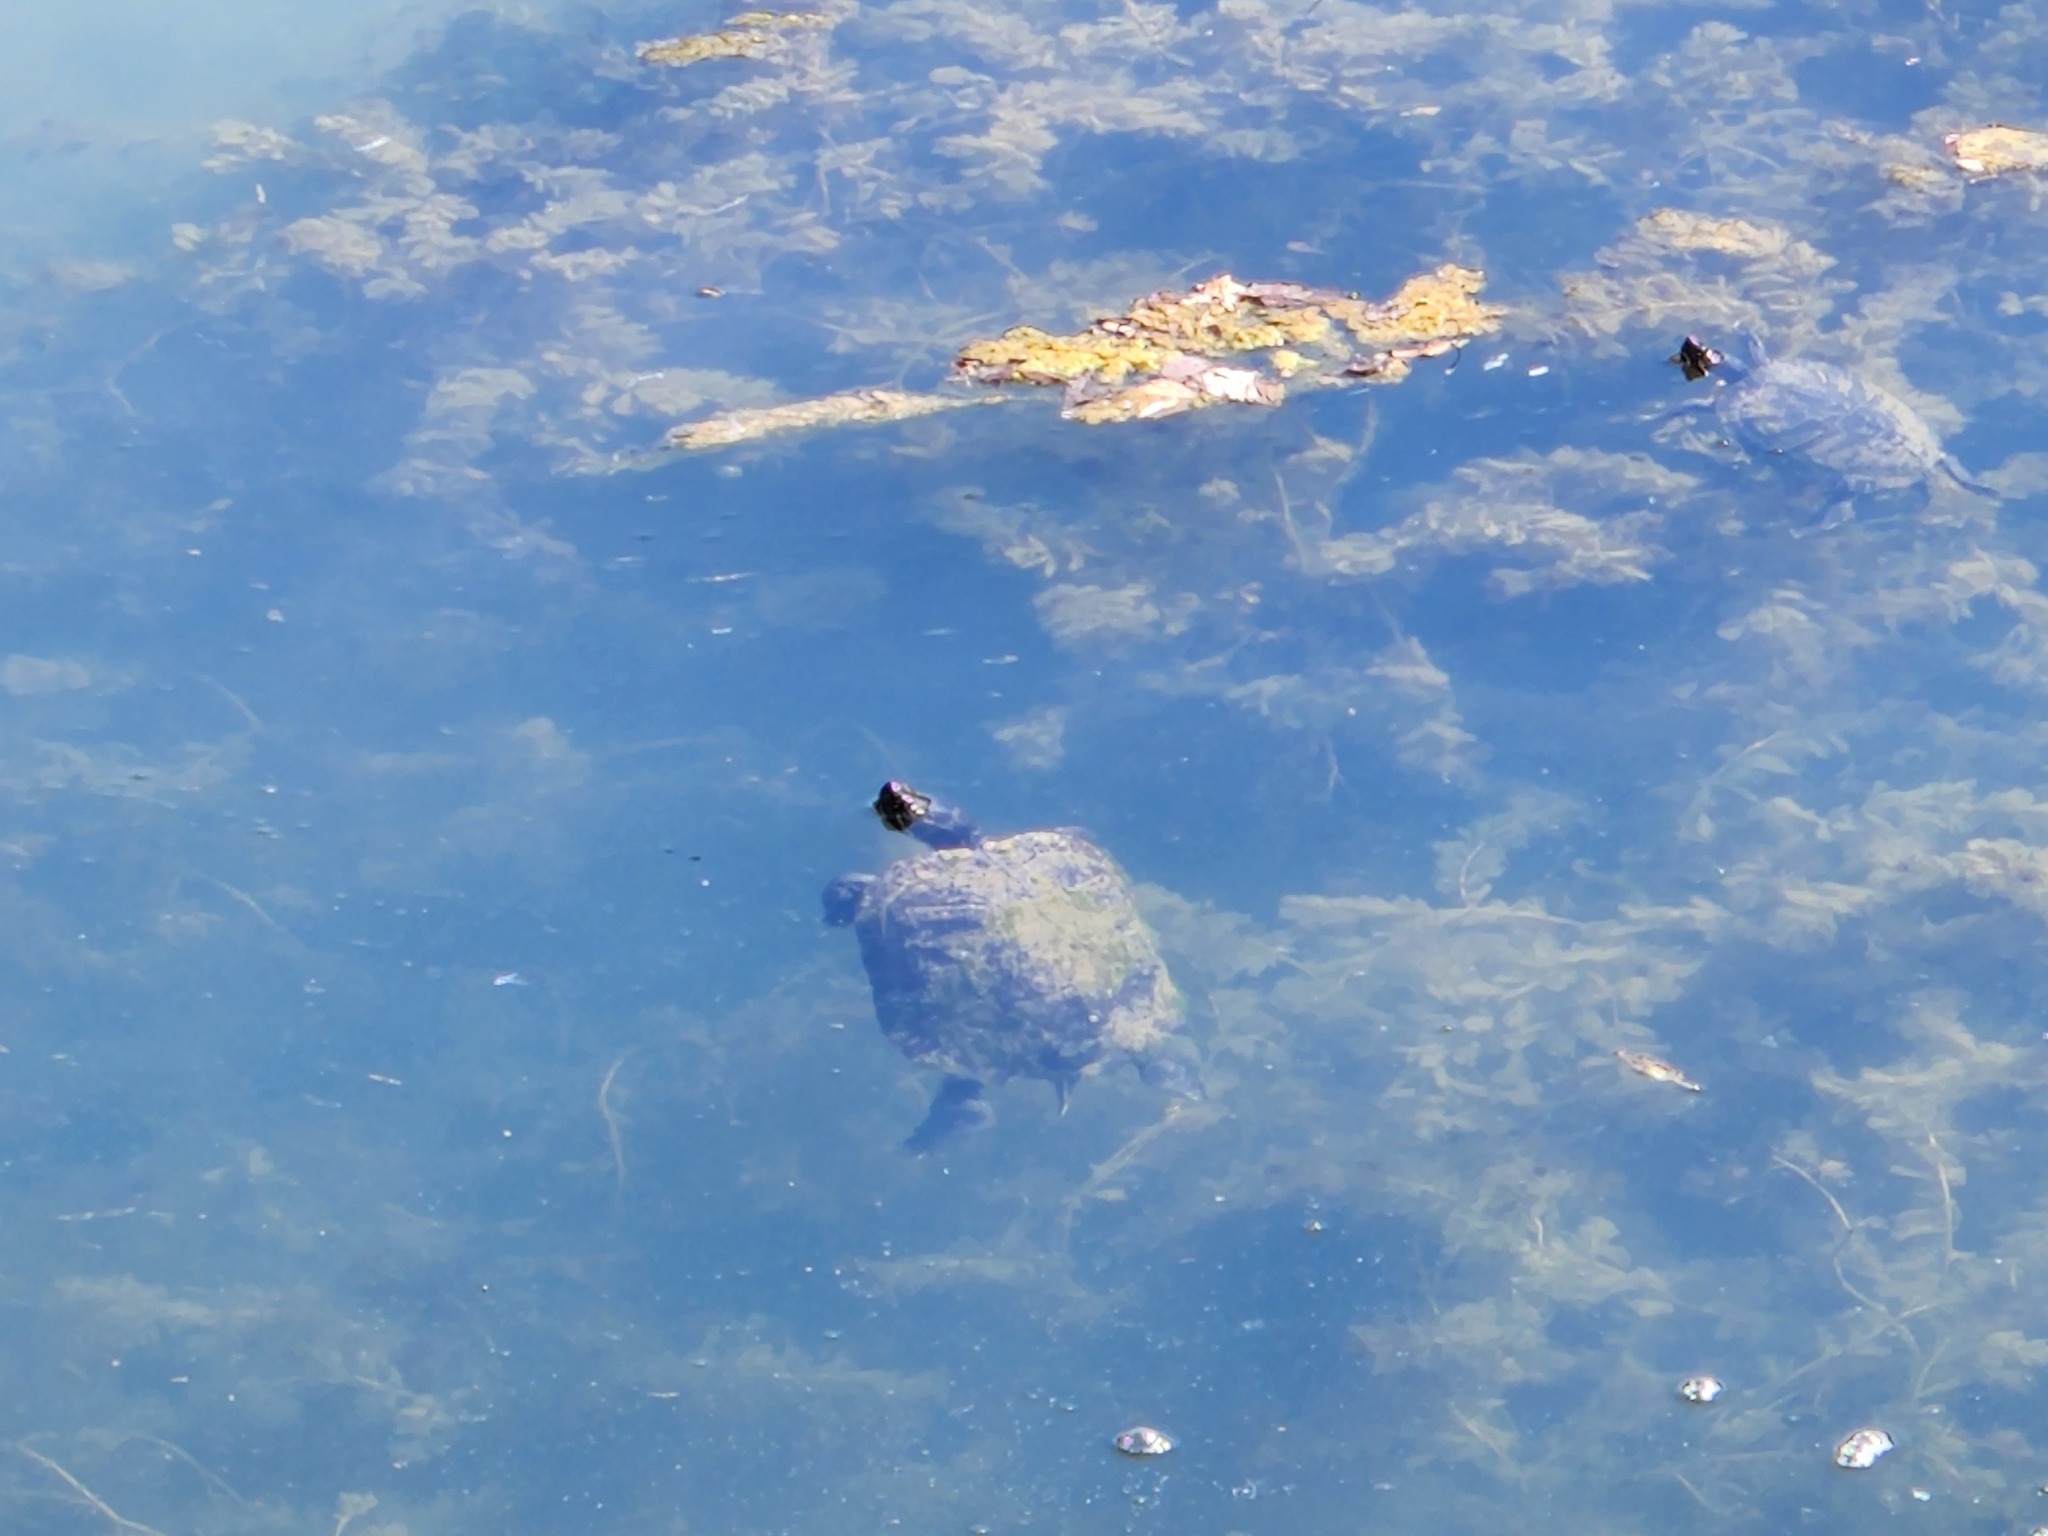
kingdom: Animalia
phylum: Chordata
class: Testudines
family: Emydidae
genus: Trachemys
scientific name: Trachemys scripta
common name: Slider
